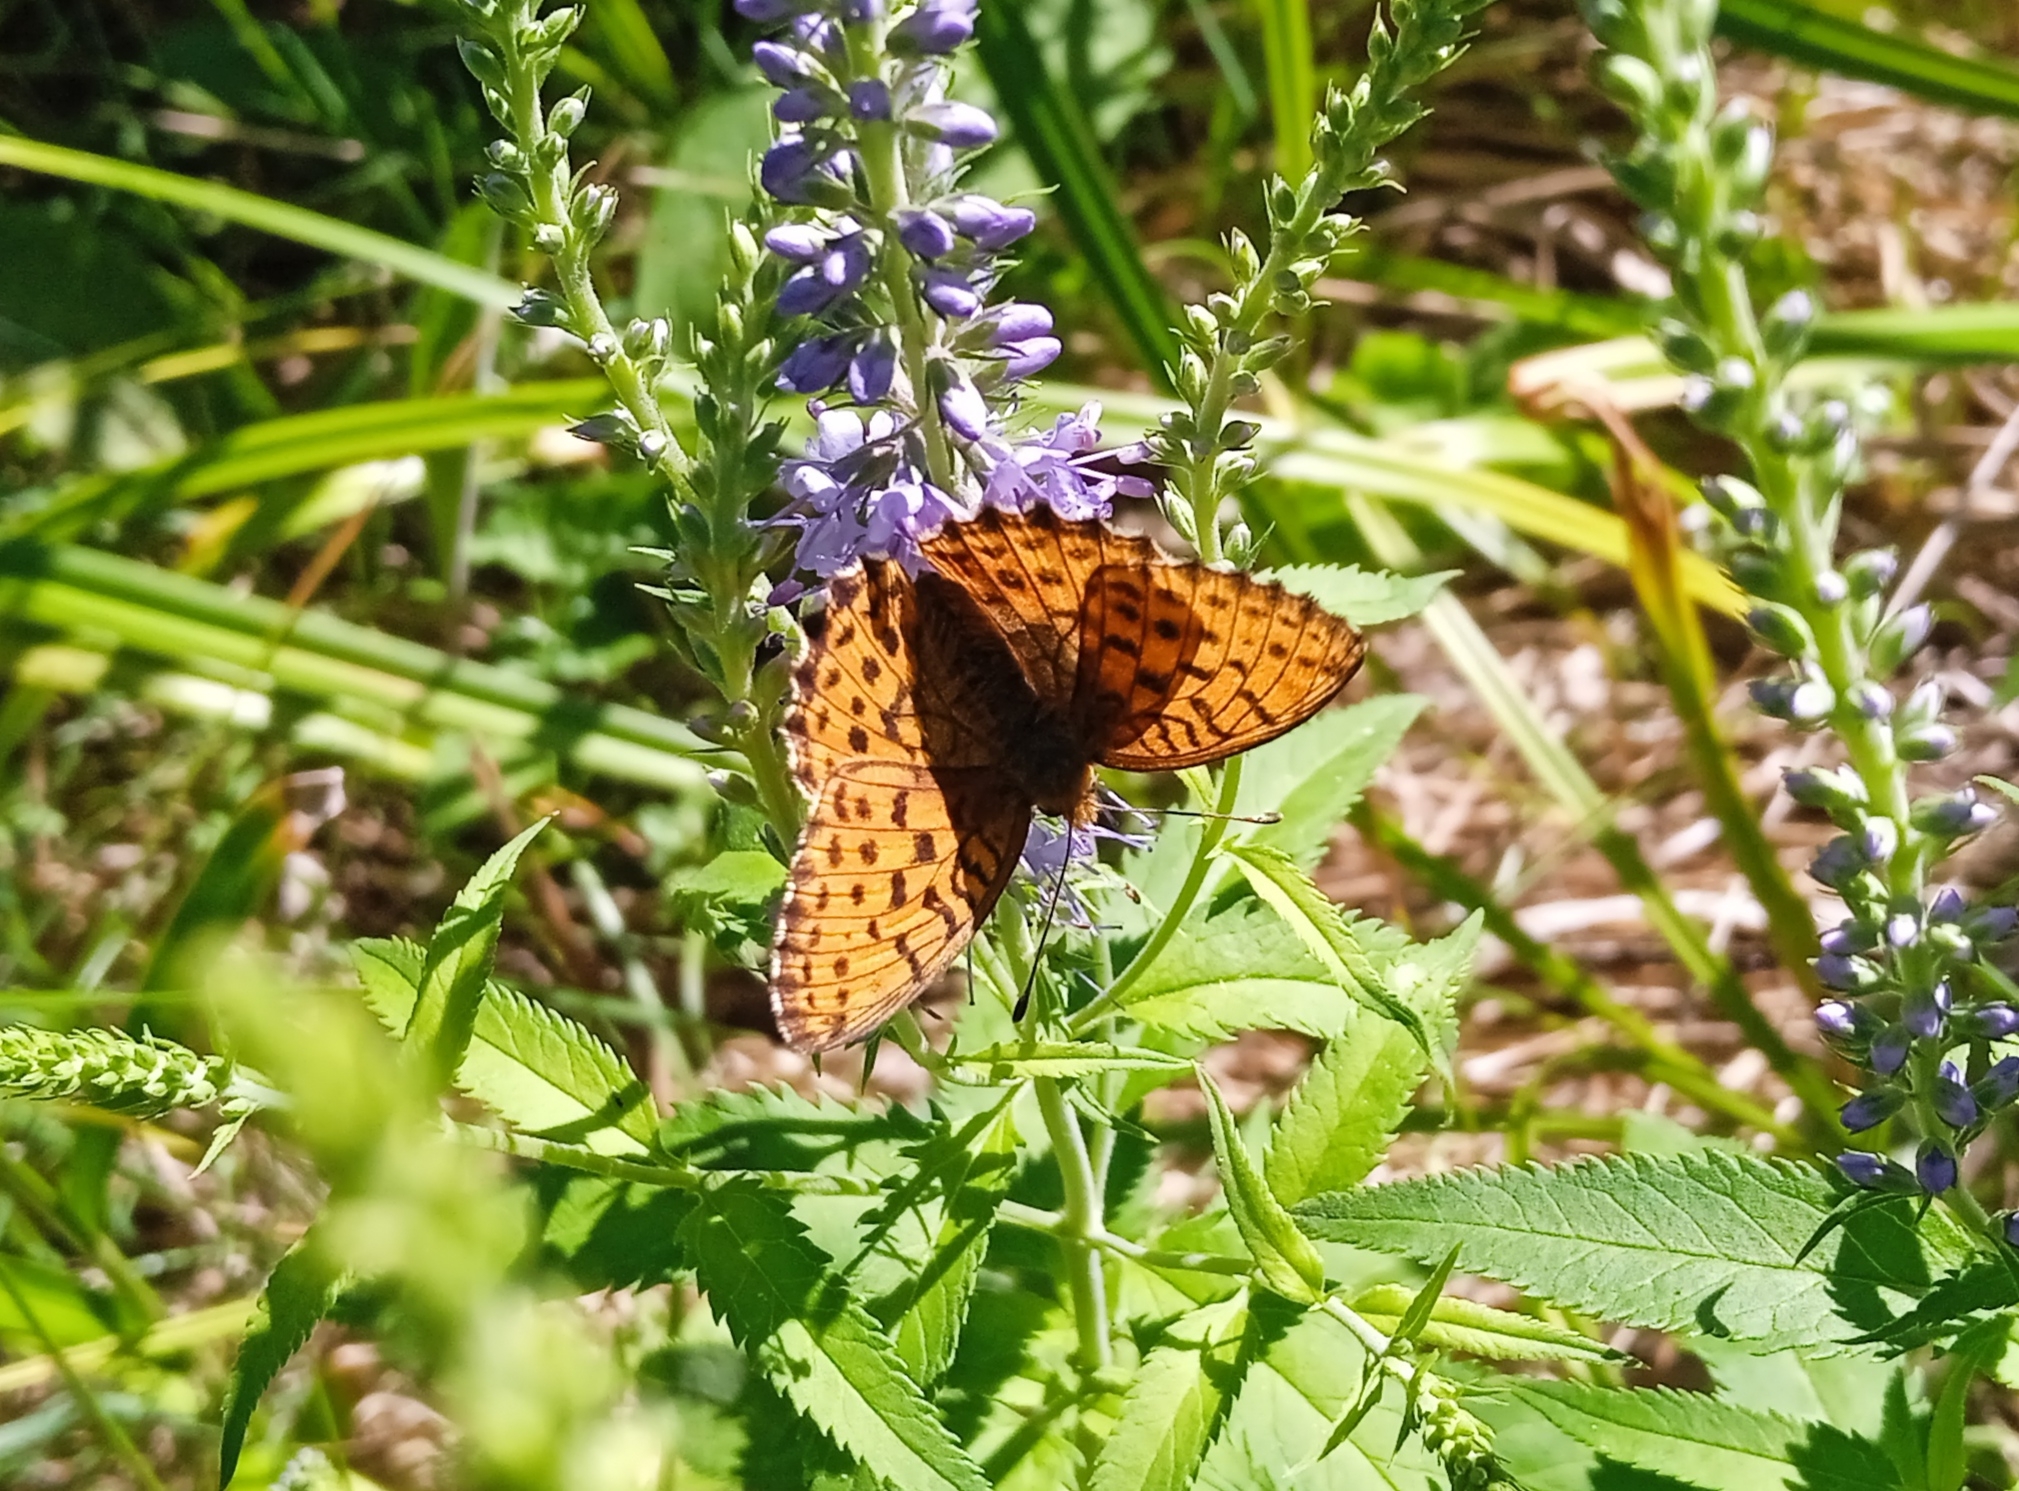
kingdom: Animalia
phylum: Arthropoda
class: Insecta
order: Lepidoptera
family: Nymphalidae
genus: Brenthis
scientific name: Brenthis ino
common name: Lesser marbled fritillary
